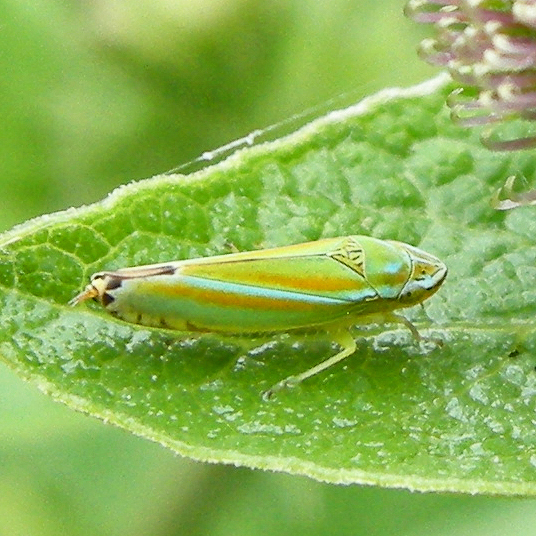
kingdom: Animalia
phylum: Arthropoda
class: Insecta
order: Hemiptera
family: Cicadellidae
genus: Graphocephala
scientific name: Graphocephala versuta
